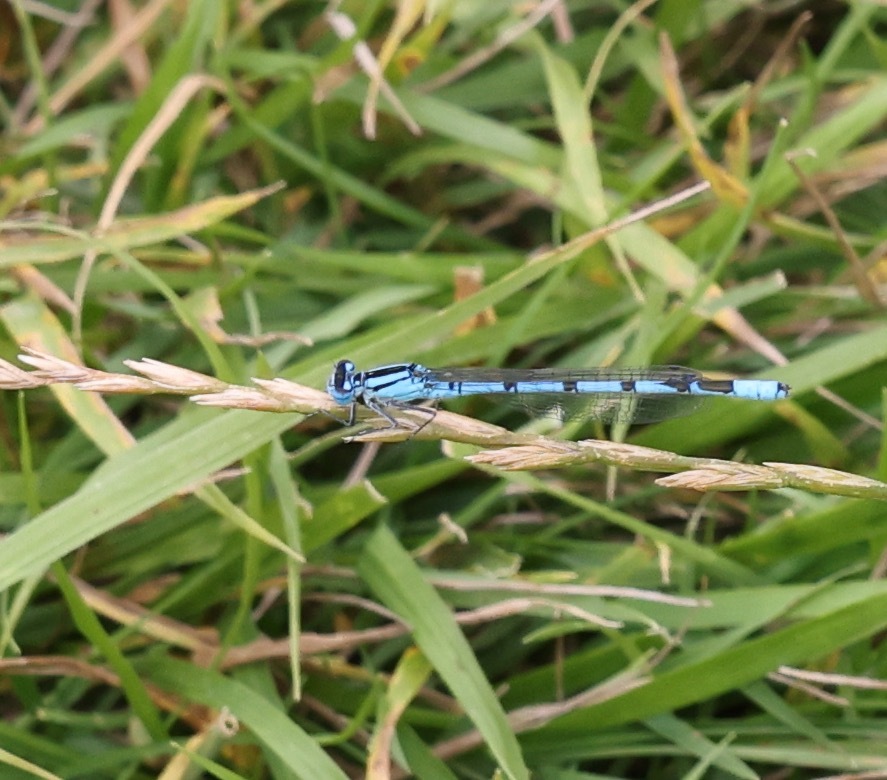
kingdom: Animalia
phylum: Arthropoda
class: Insecta
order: Odonata
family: Coenagrionidae
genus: Enallagma
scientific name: Enallagma cyathigerum
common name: Common blue damselfly
